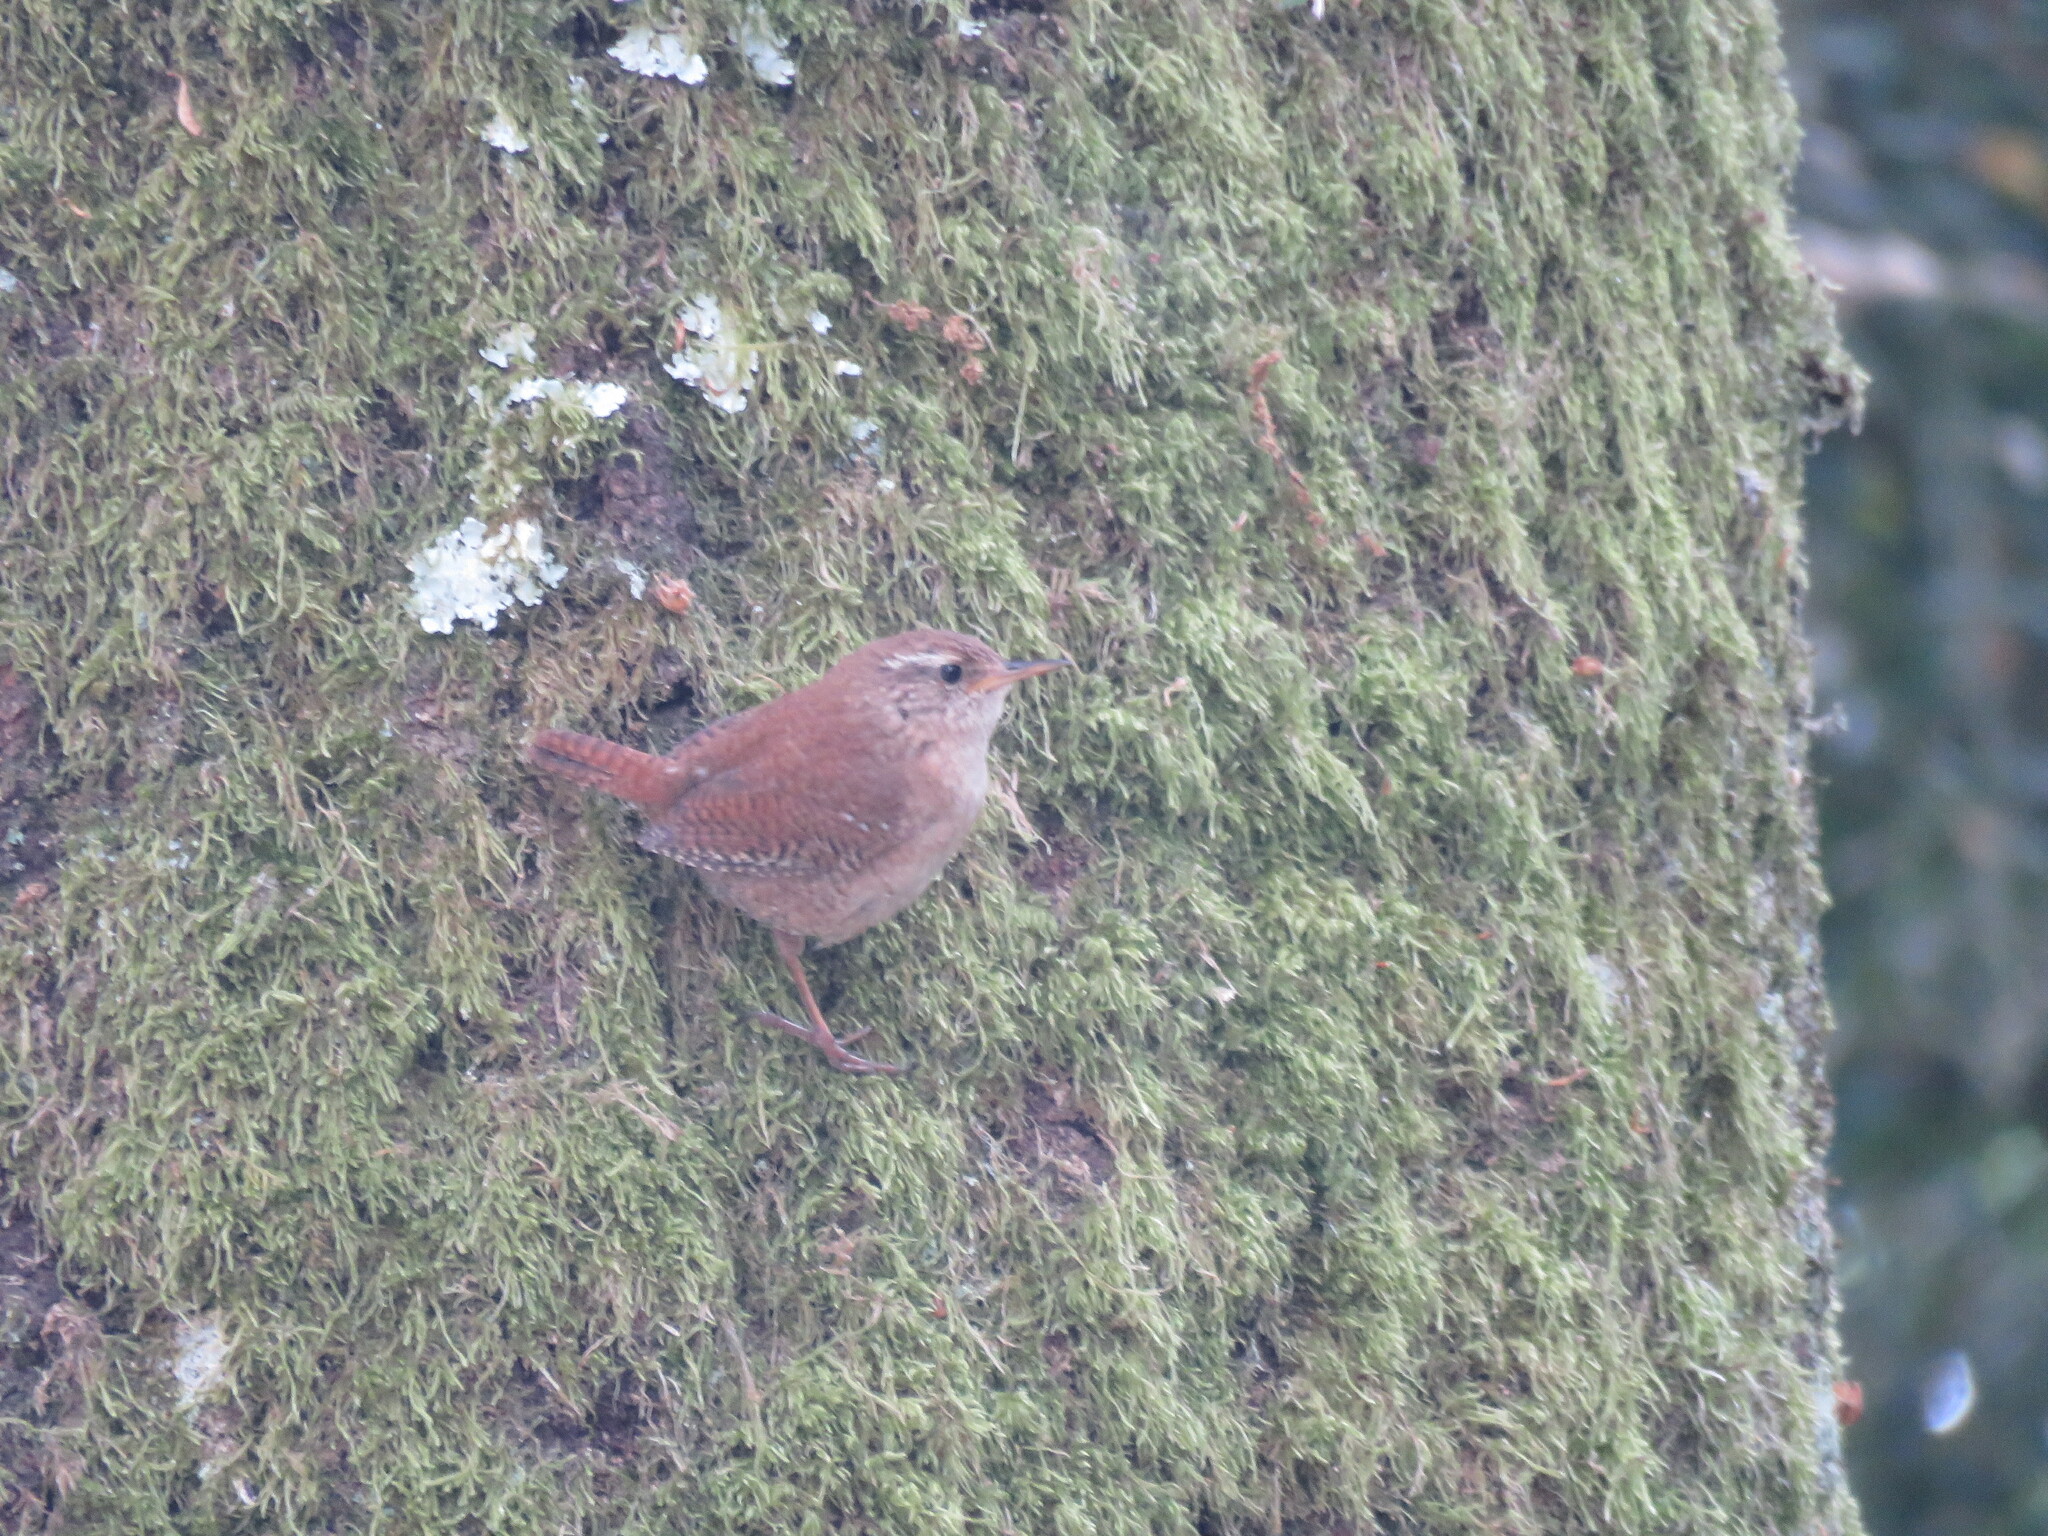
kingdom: Animalia
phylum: Chordata
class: Aves
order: Passeriformes
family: Troglodytidae
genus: Troglodytes
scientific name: Troglodytes troglodytes
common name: Eurasian wren
